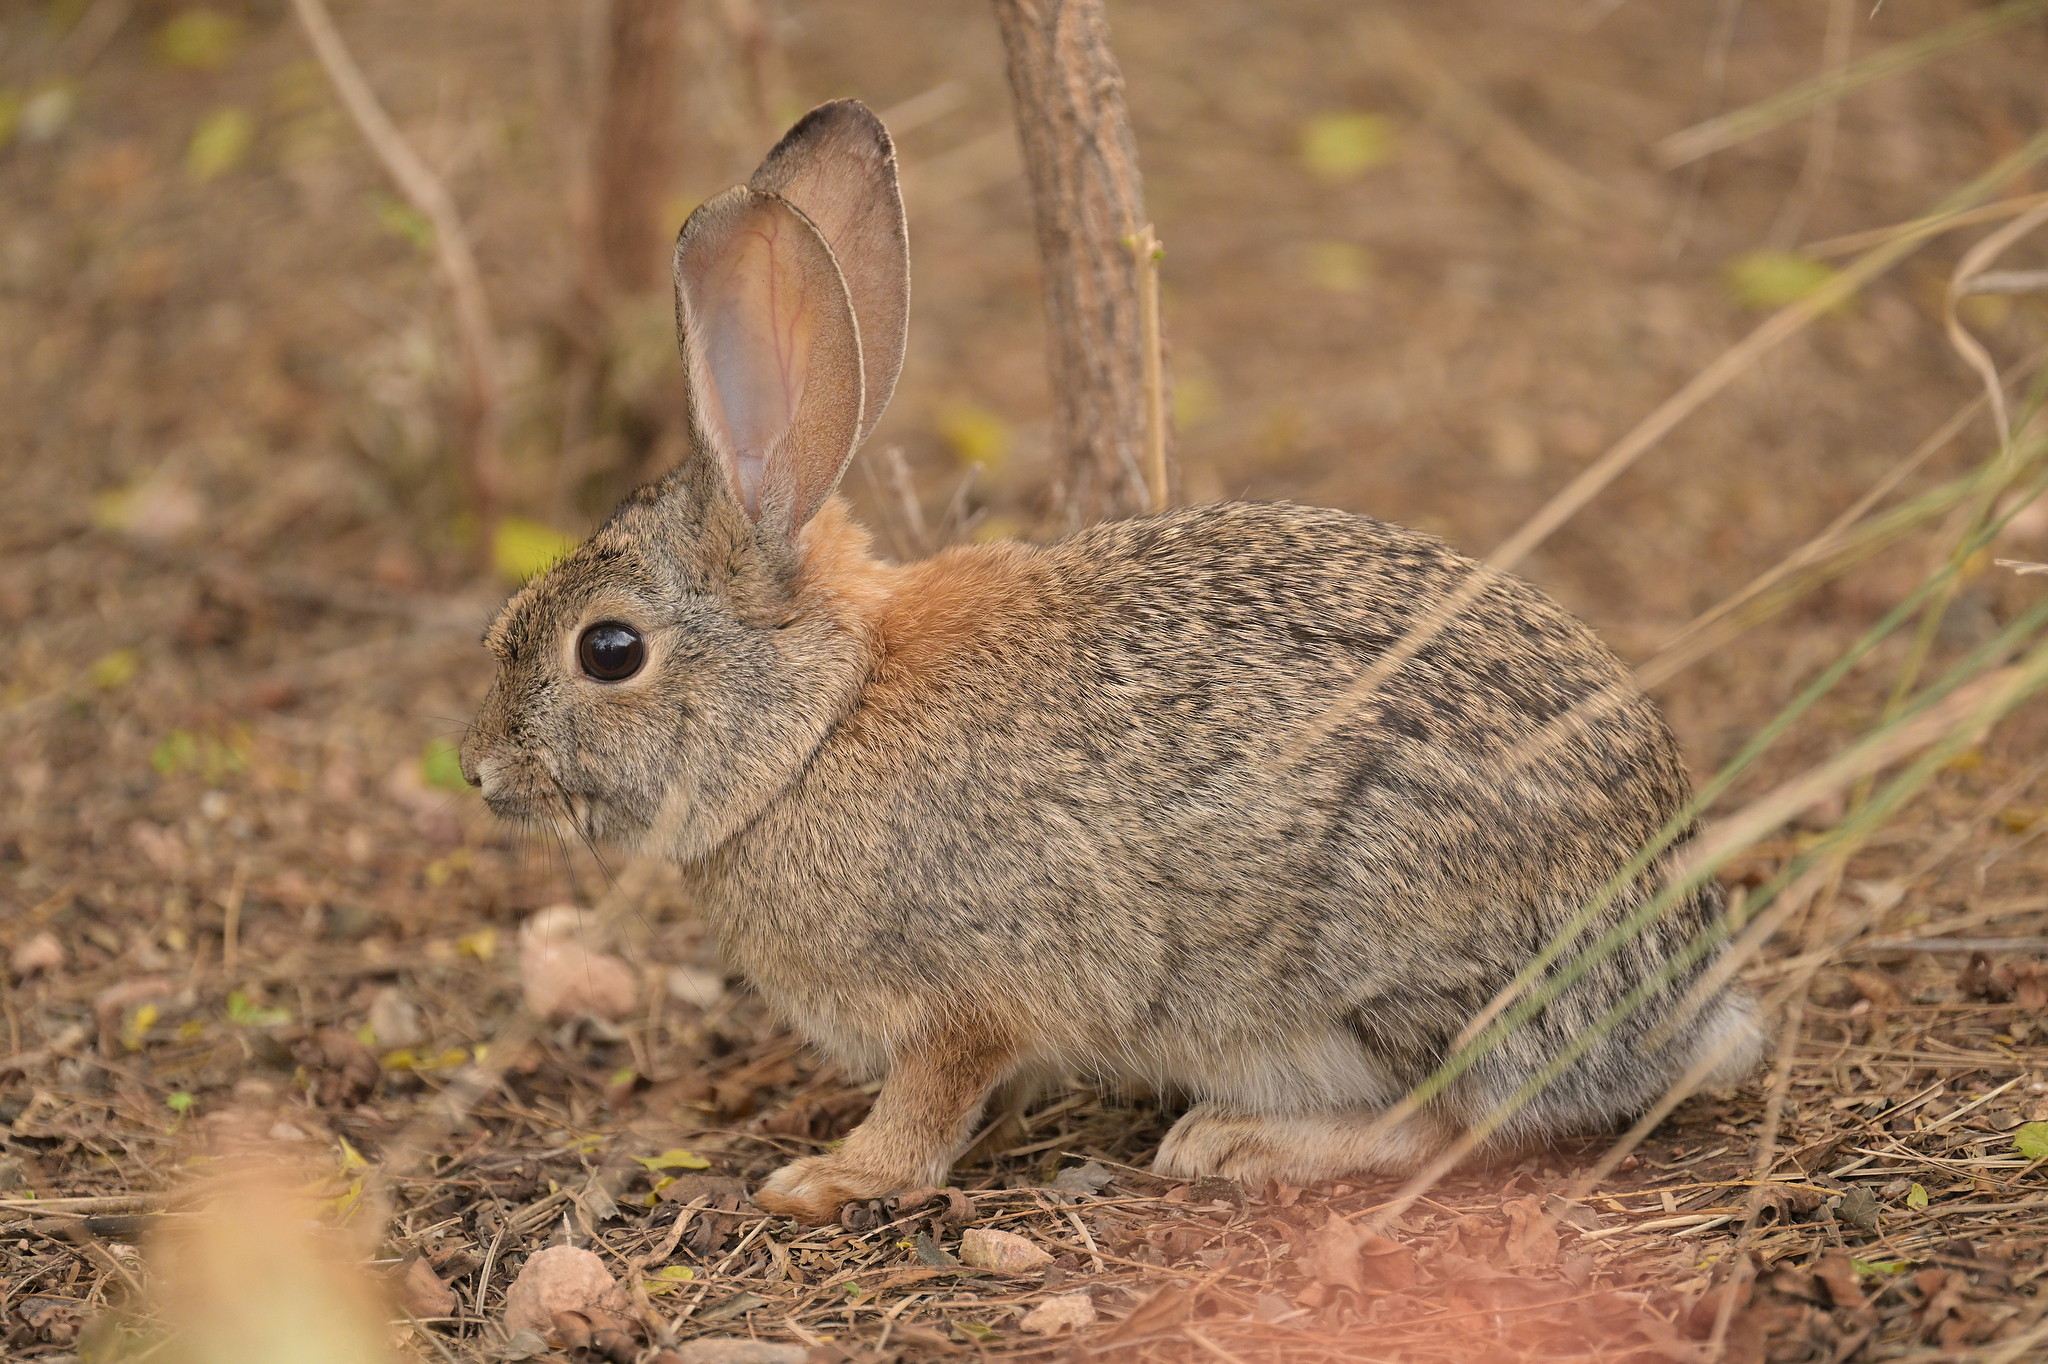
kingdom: Animalia
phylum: Chordata
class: Mammalia
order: Lagomorpha
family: Leporidae
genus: Sylvilagus
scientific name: Sylvilagus audubonii
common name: Desert cottontail
